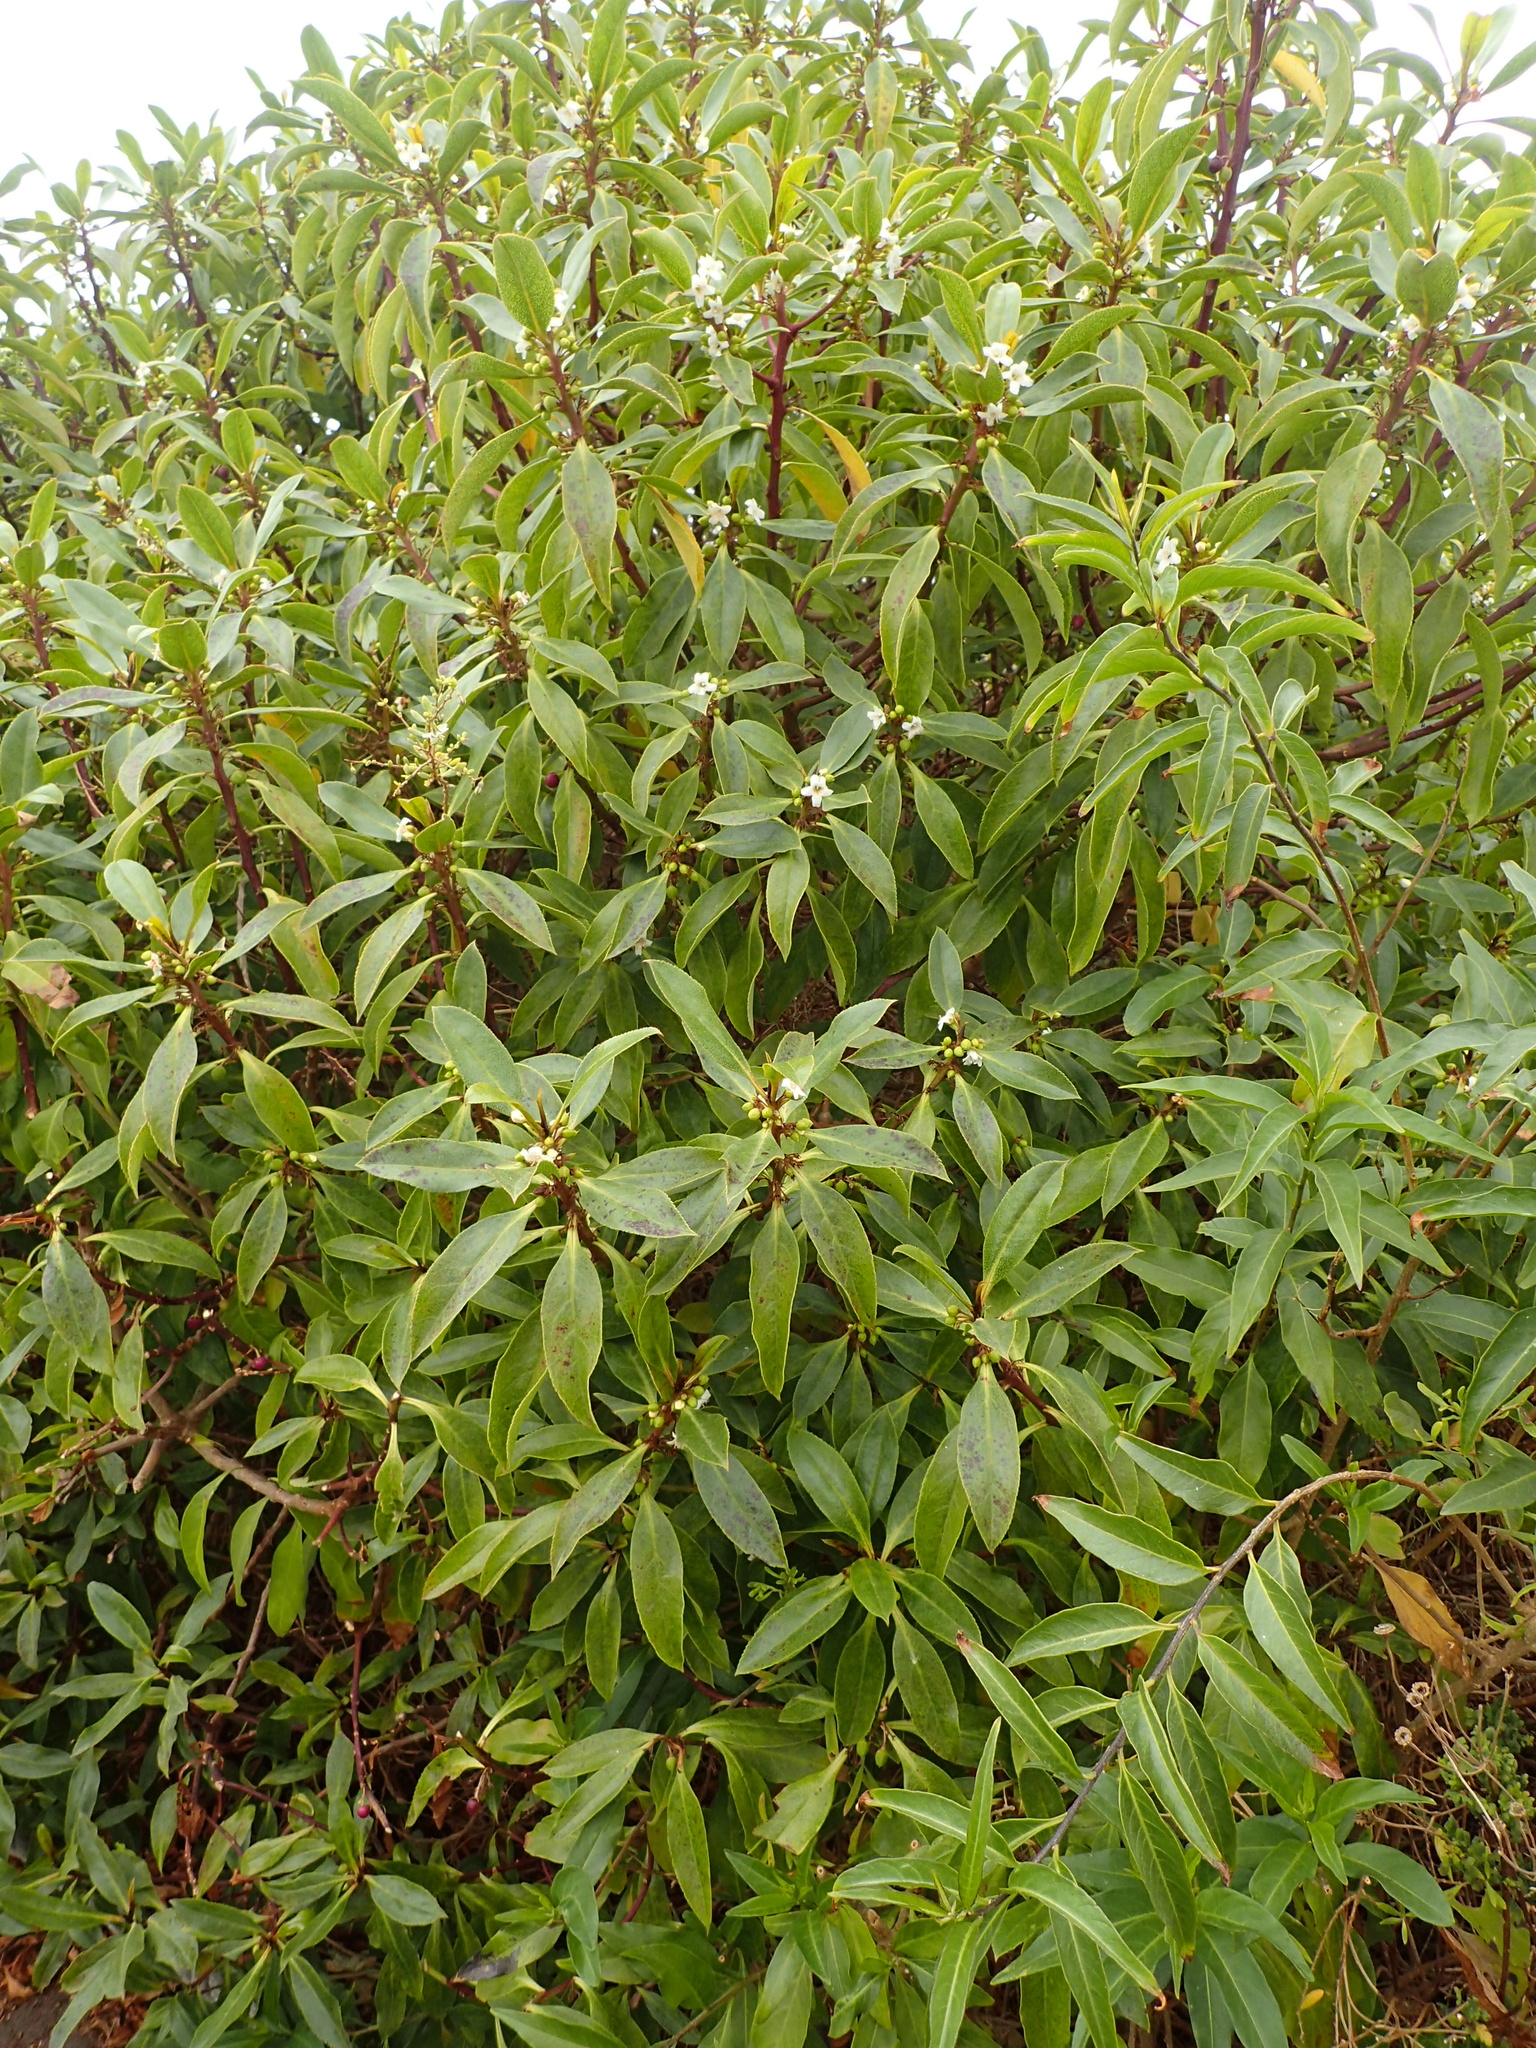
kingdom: Plantae
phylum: Tracheophyta
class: Magnoliopsida
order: Lamiales
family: Scrophulariaceae
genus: Myoporum
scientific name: Myoporum laetum
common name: Ngaio tree
